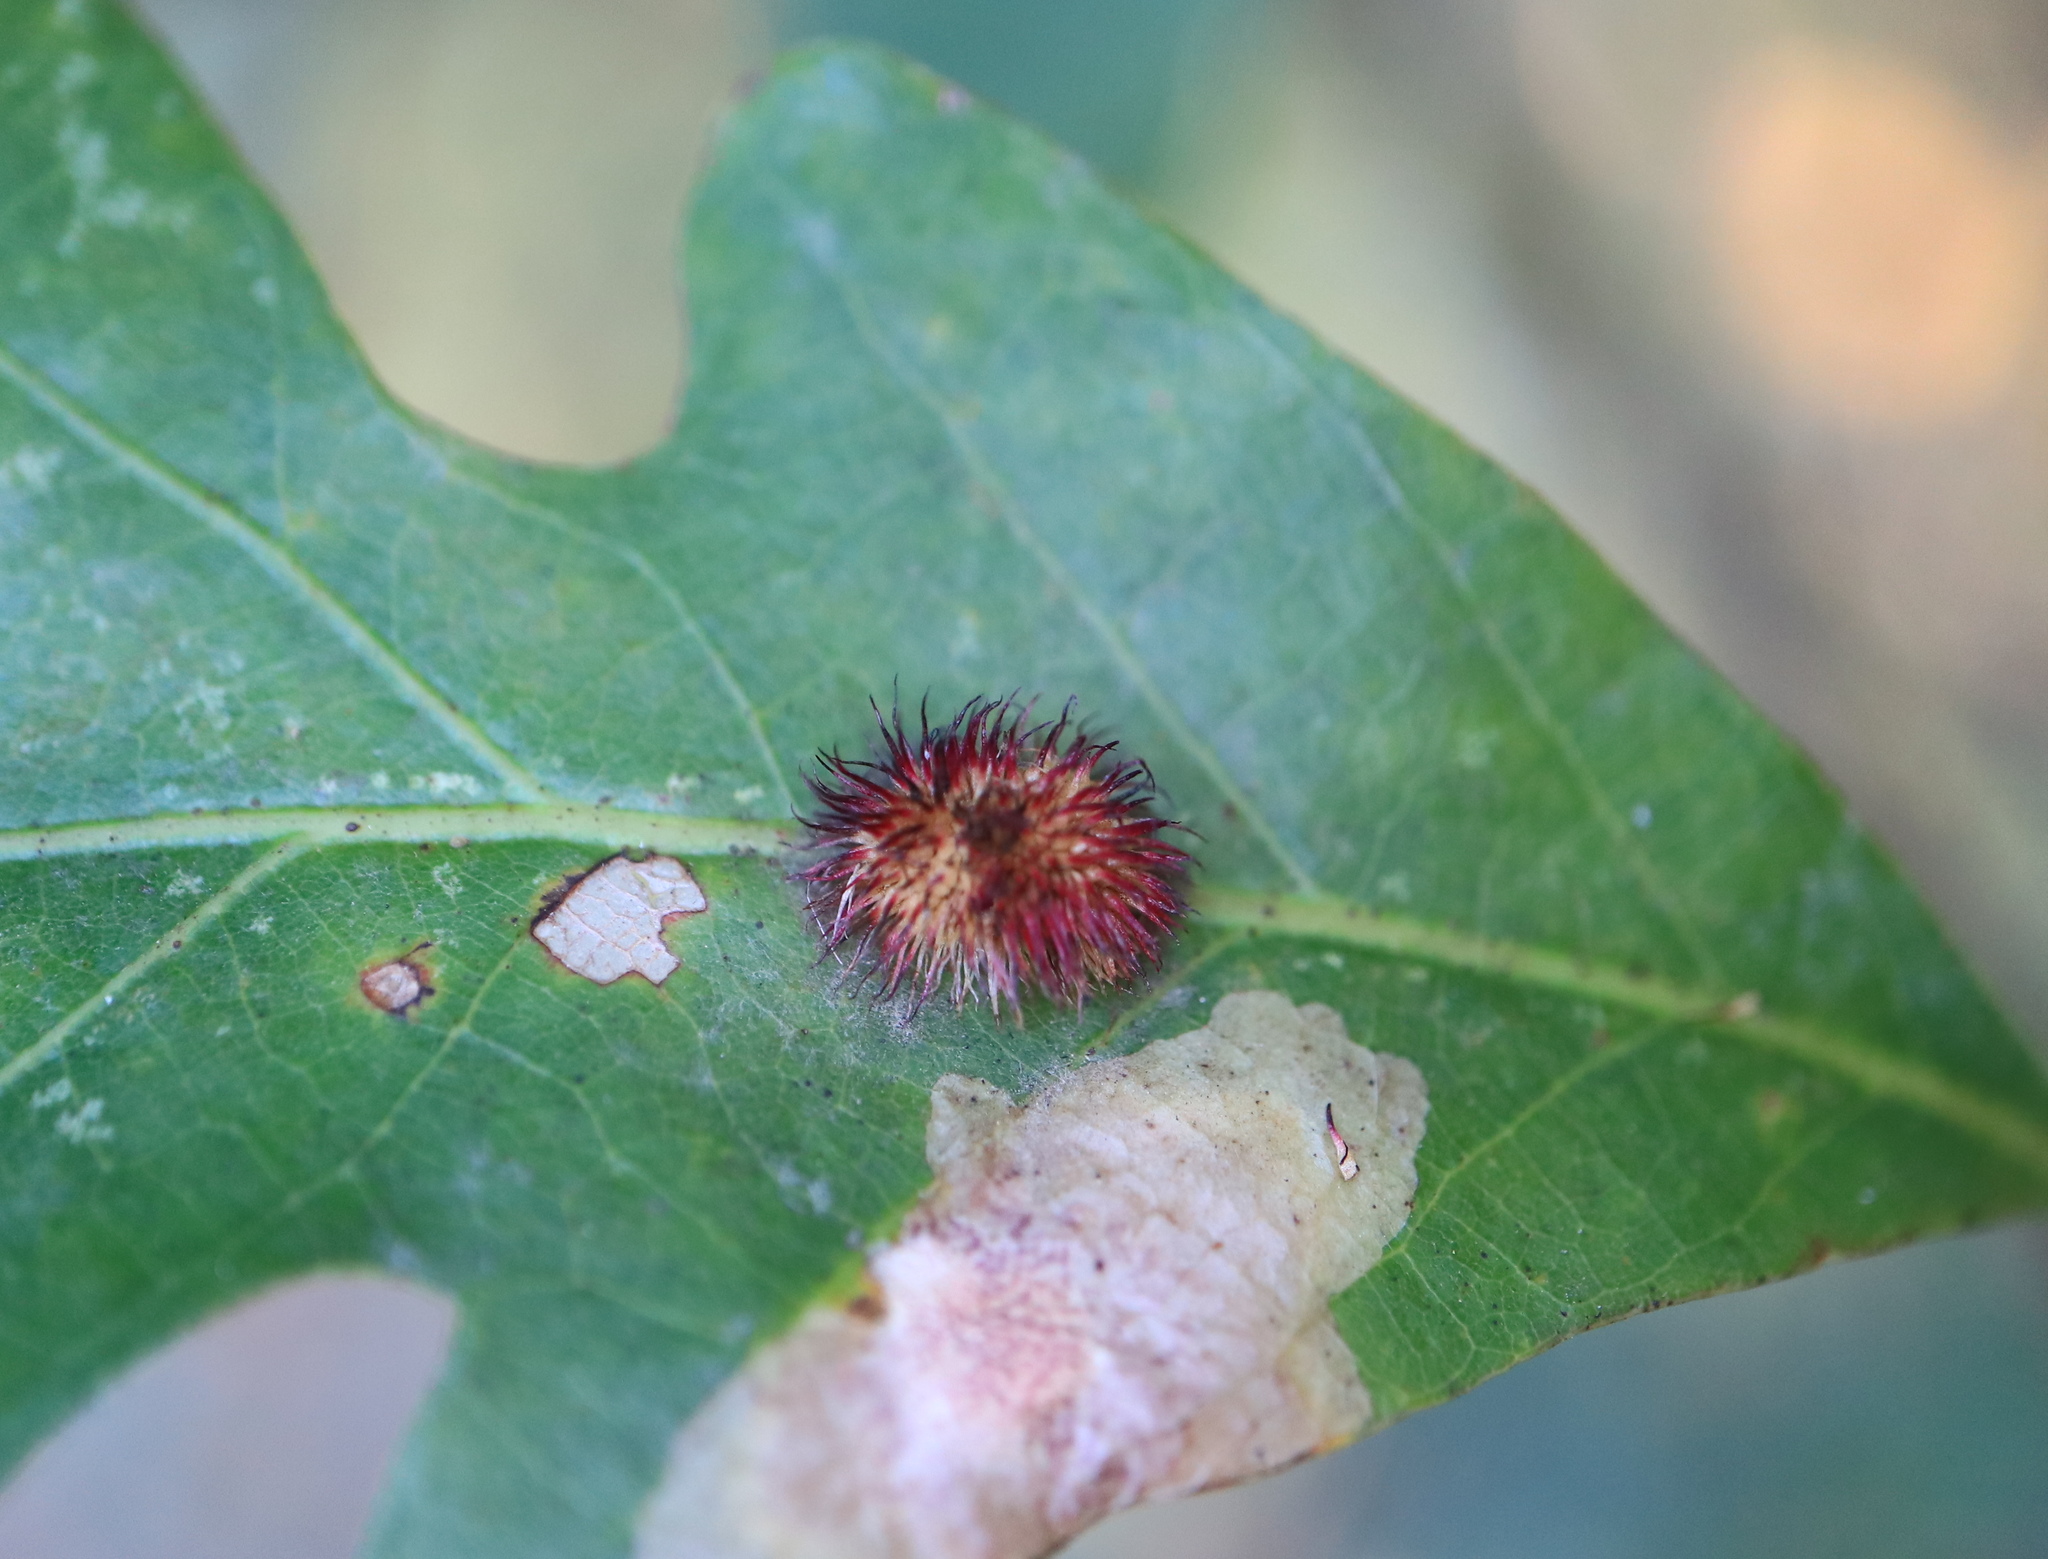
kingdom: Animalia
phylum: Arthropoda
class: Insecta
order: Hymenoptera
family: Cynipidae
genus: Acraspis
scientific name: Acraspis erinacei
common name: Hedgehog gall wasp
